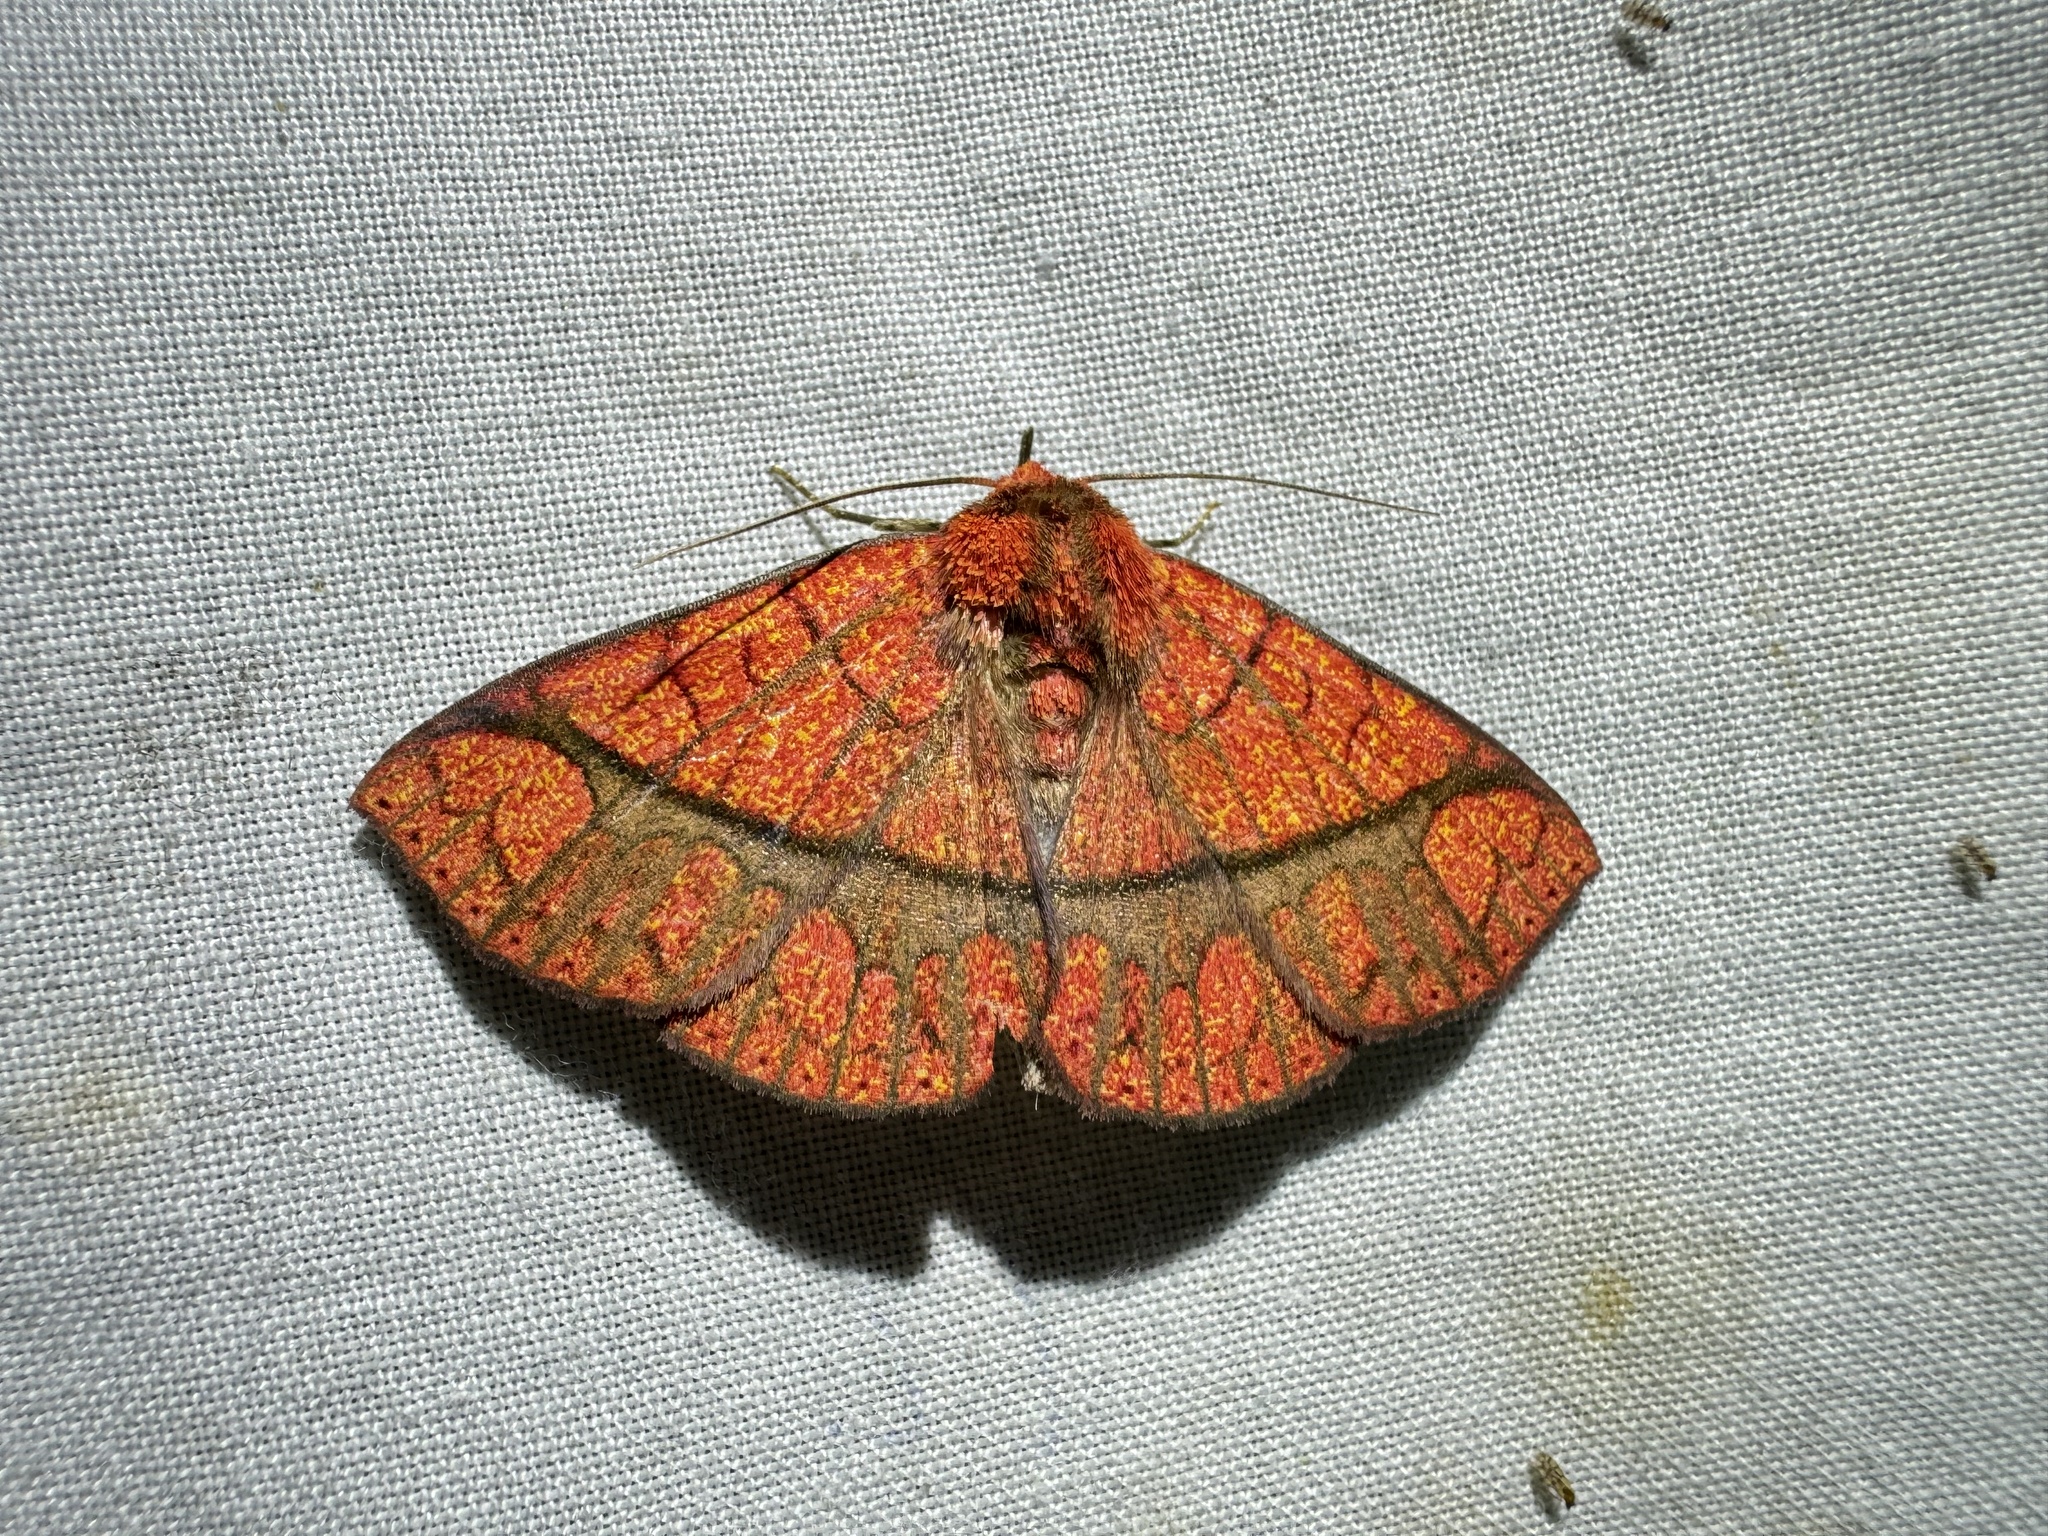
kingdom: Animalia
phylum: Arthropoda
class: Insecta
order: Lepidoptera
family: Erebidae
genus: Antiblemma
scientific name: Antiblemma subrutilans
